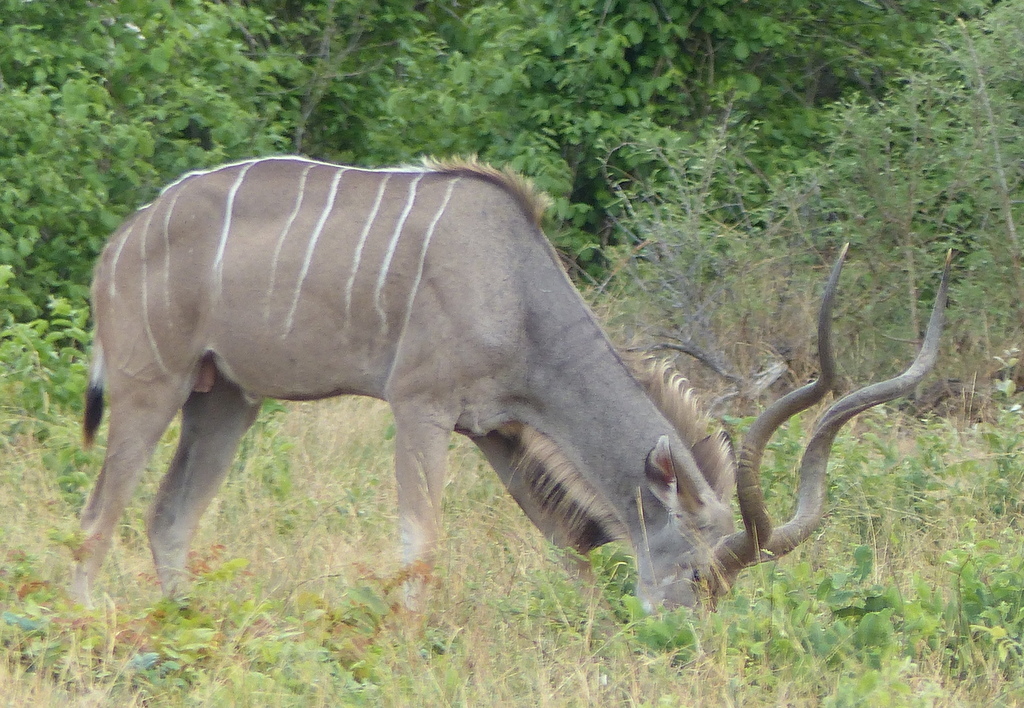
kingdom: Animalia
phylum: Chordata
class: Mammalia
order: Artiodactyla
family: Bovidae
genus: Tragelaphus
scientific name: Tragelaphus strepsiceros
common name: Greater kudu
